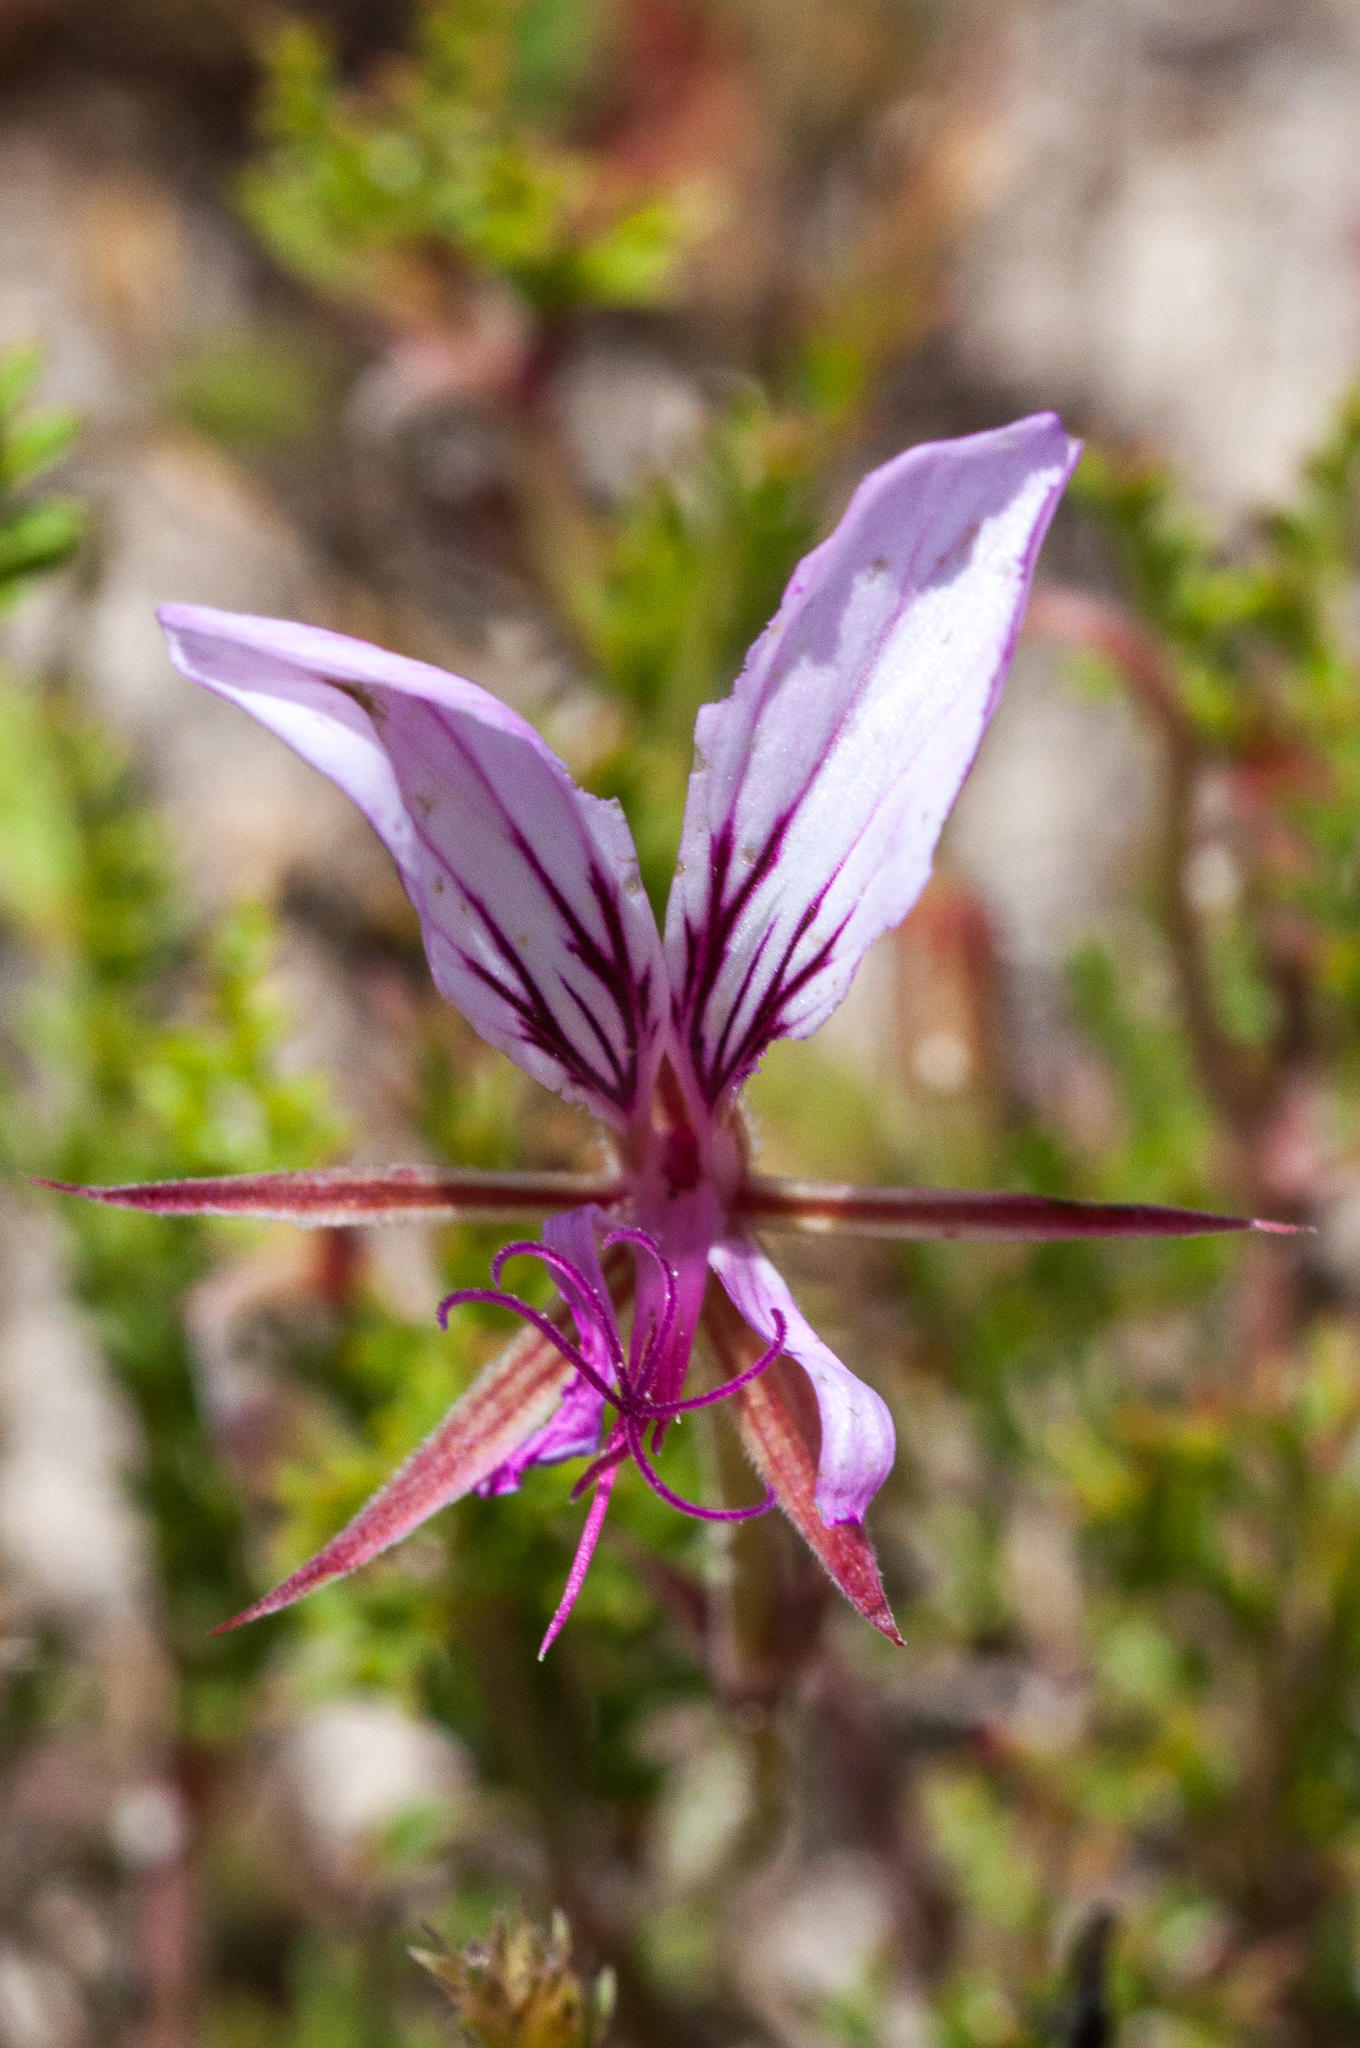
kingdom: Plantae
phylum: Tracheophyta
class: Magnoliopsida
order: Geraniales
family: Geraniaceae
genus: Pelargonium
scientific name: Pelargonium caucalifolium
